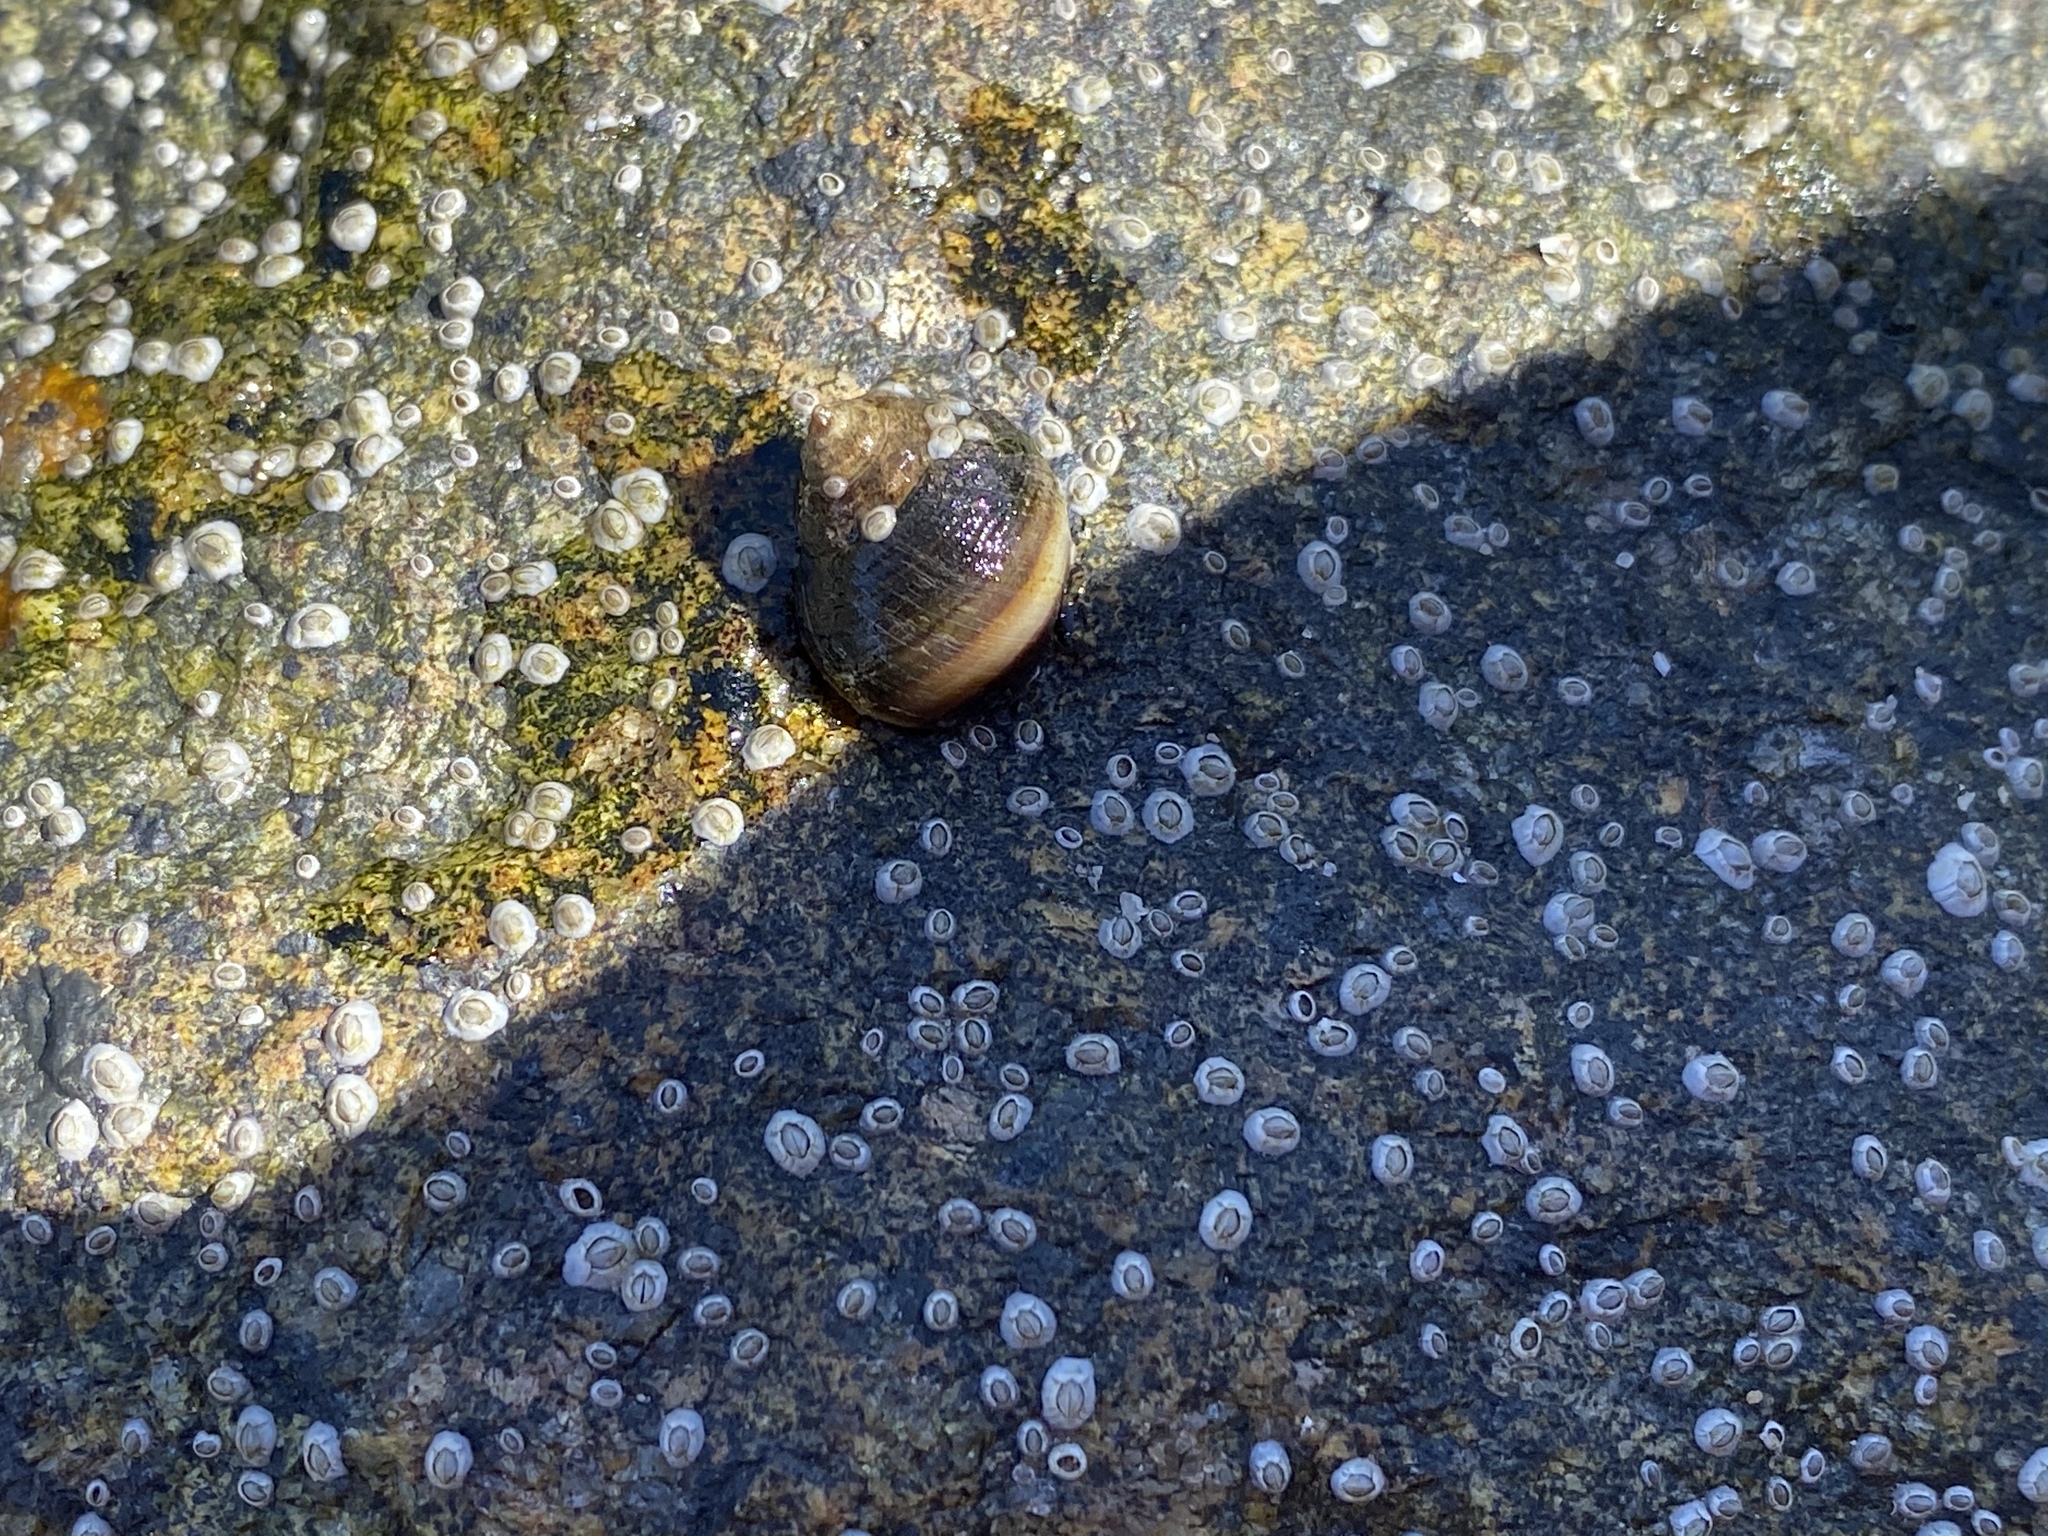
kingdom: Animalia
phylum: Mollusca
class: Gastropoda
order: Littorinimorpha
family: Littorinidae
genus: Littorina
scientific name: Littorina littorea
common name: Common periwinkle
